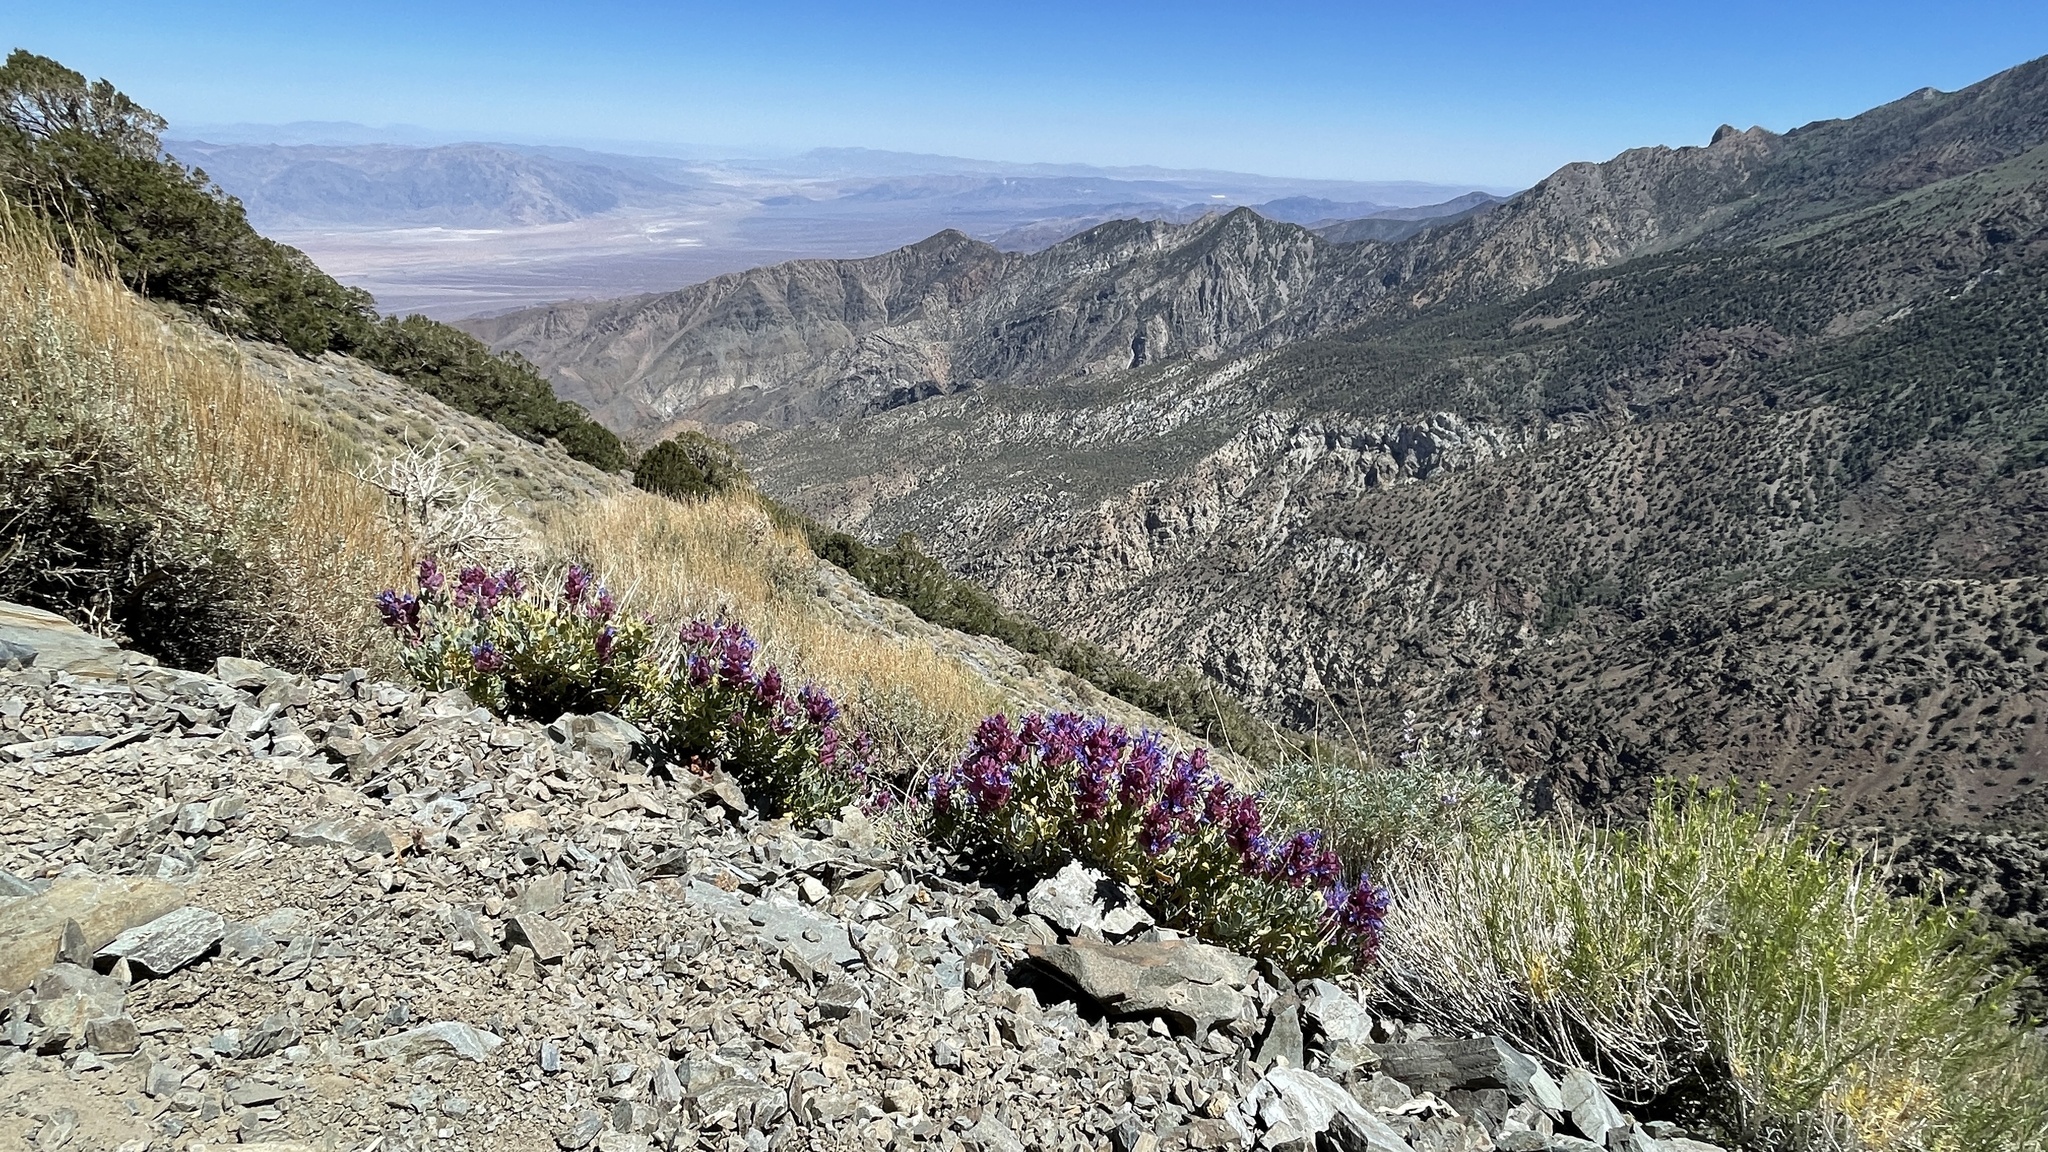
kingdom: Plantae
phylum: Tracheophyta
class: Magnoliopsida
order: Lamiales
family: Lamiaceae
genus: Salvia
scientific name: Salvia pachyphylla
